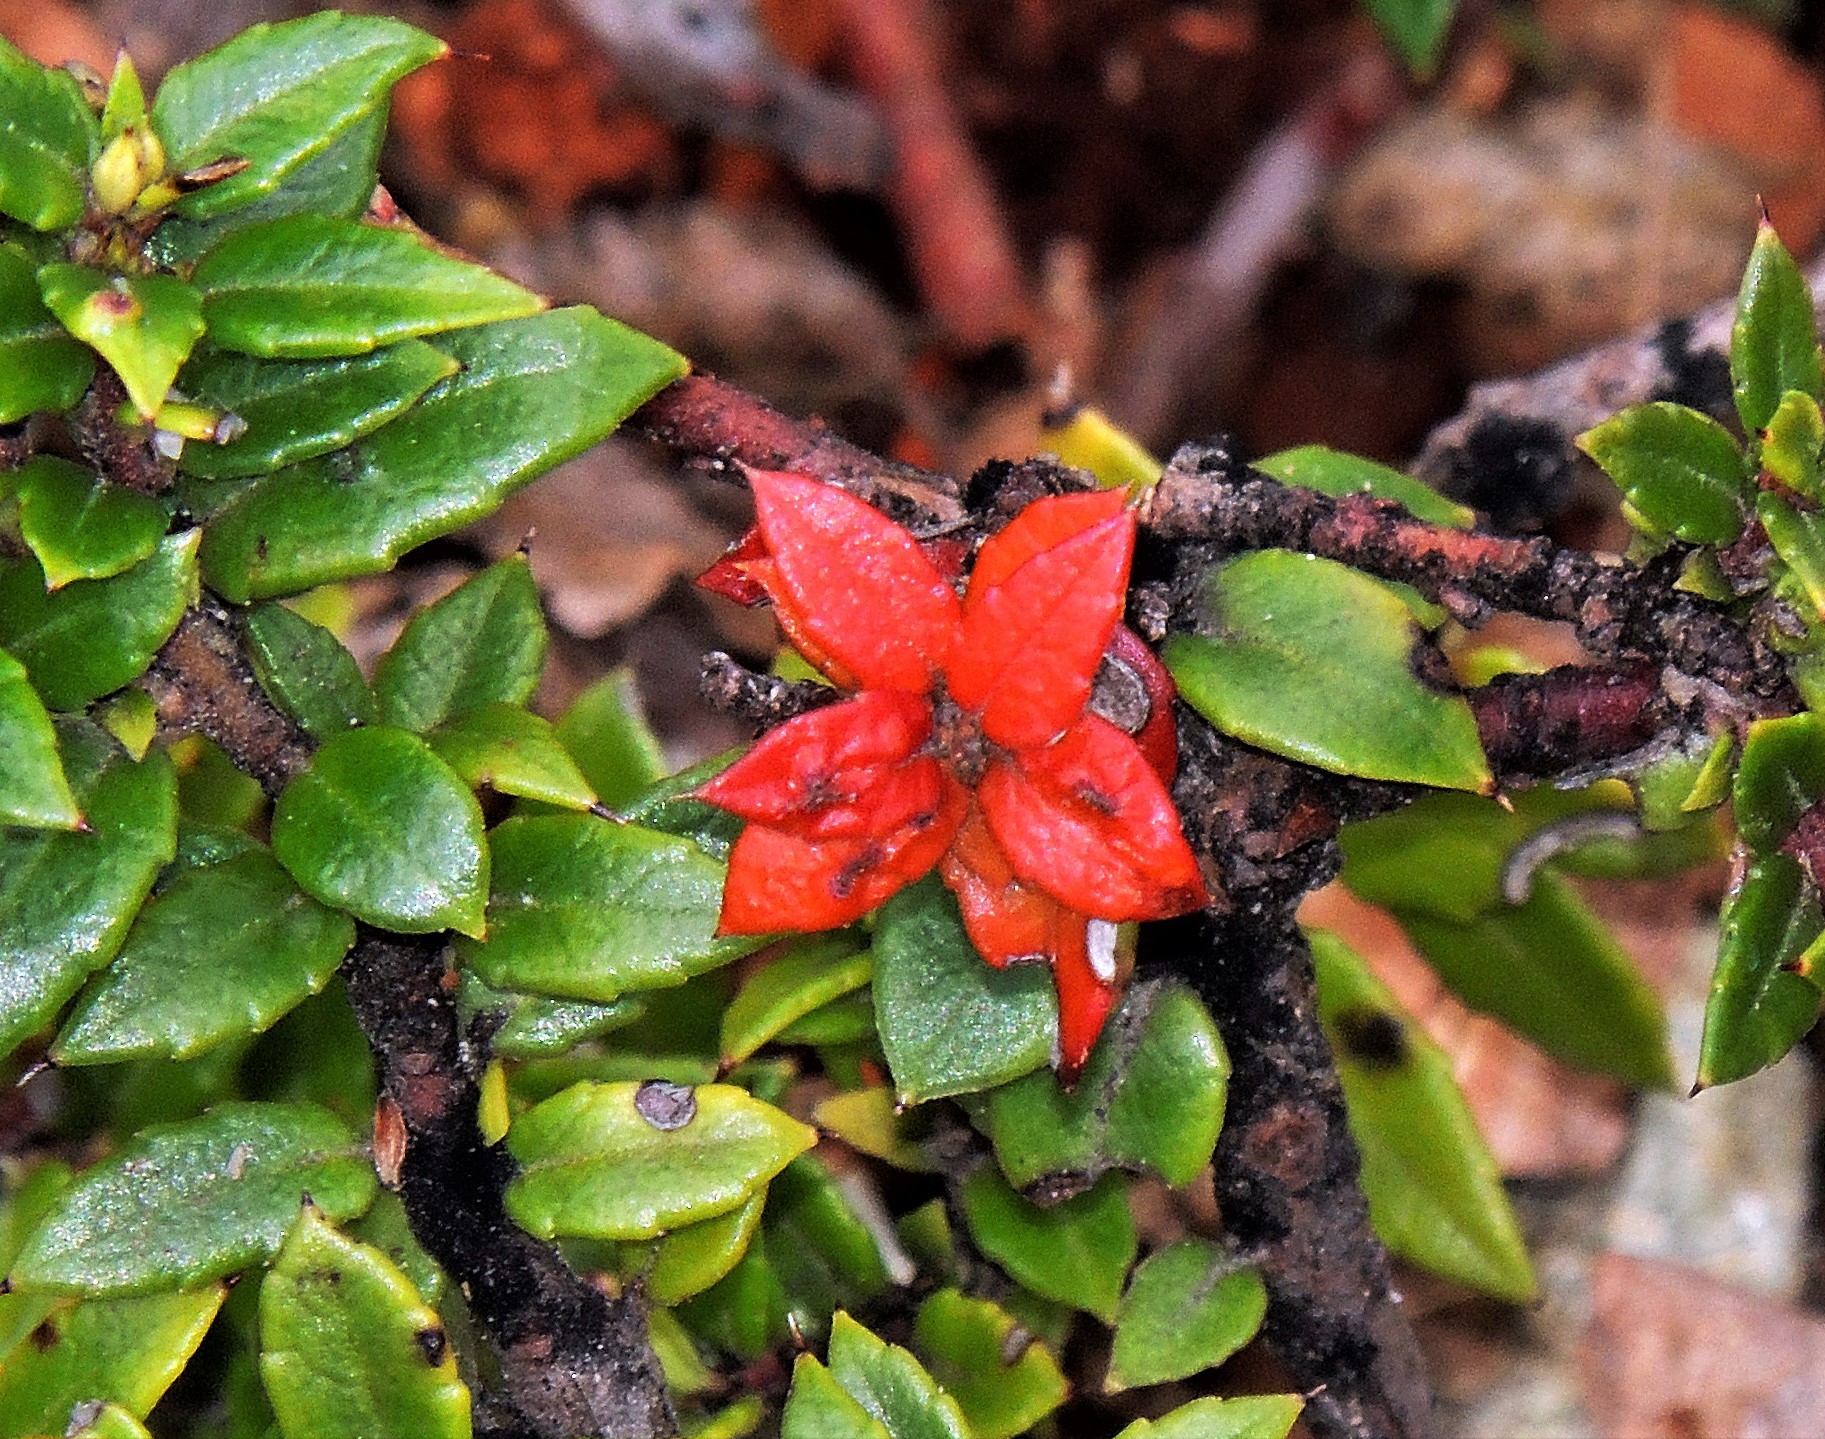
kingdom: Plantae
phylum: Tracheophyta
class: Magnoliopsida
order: Ericales
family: Ericaceae
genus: Gaultheria
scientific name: Gaultheria mucronata
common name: Prickly heath
